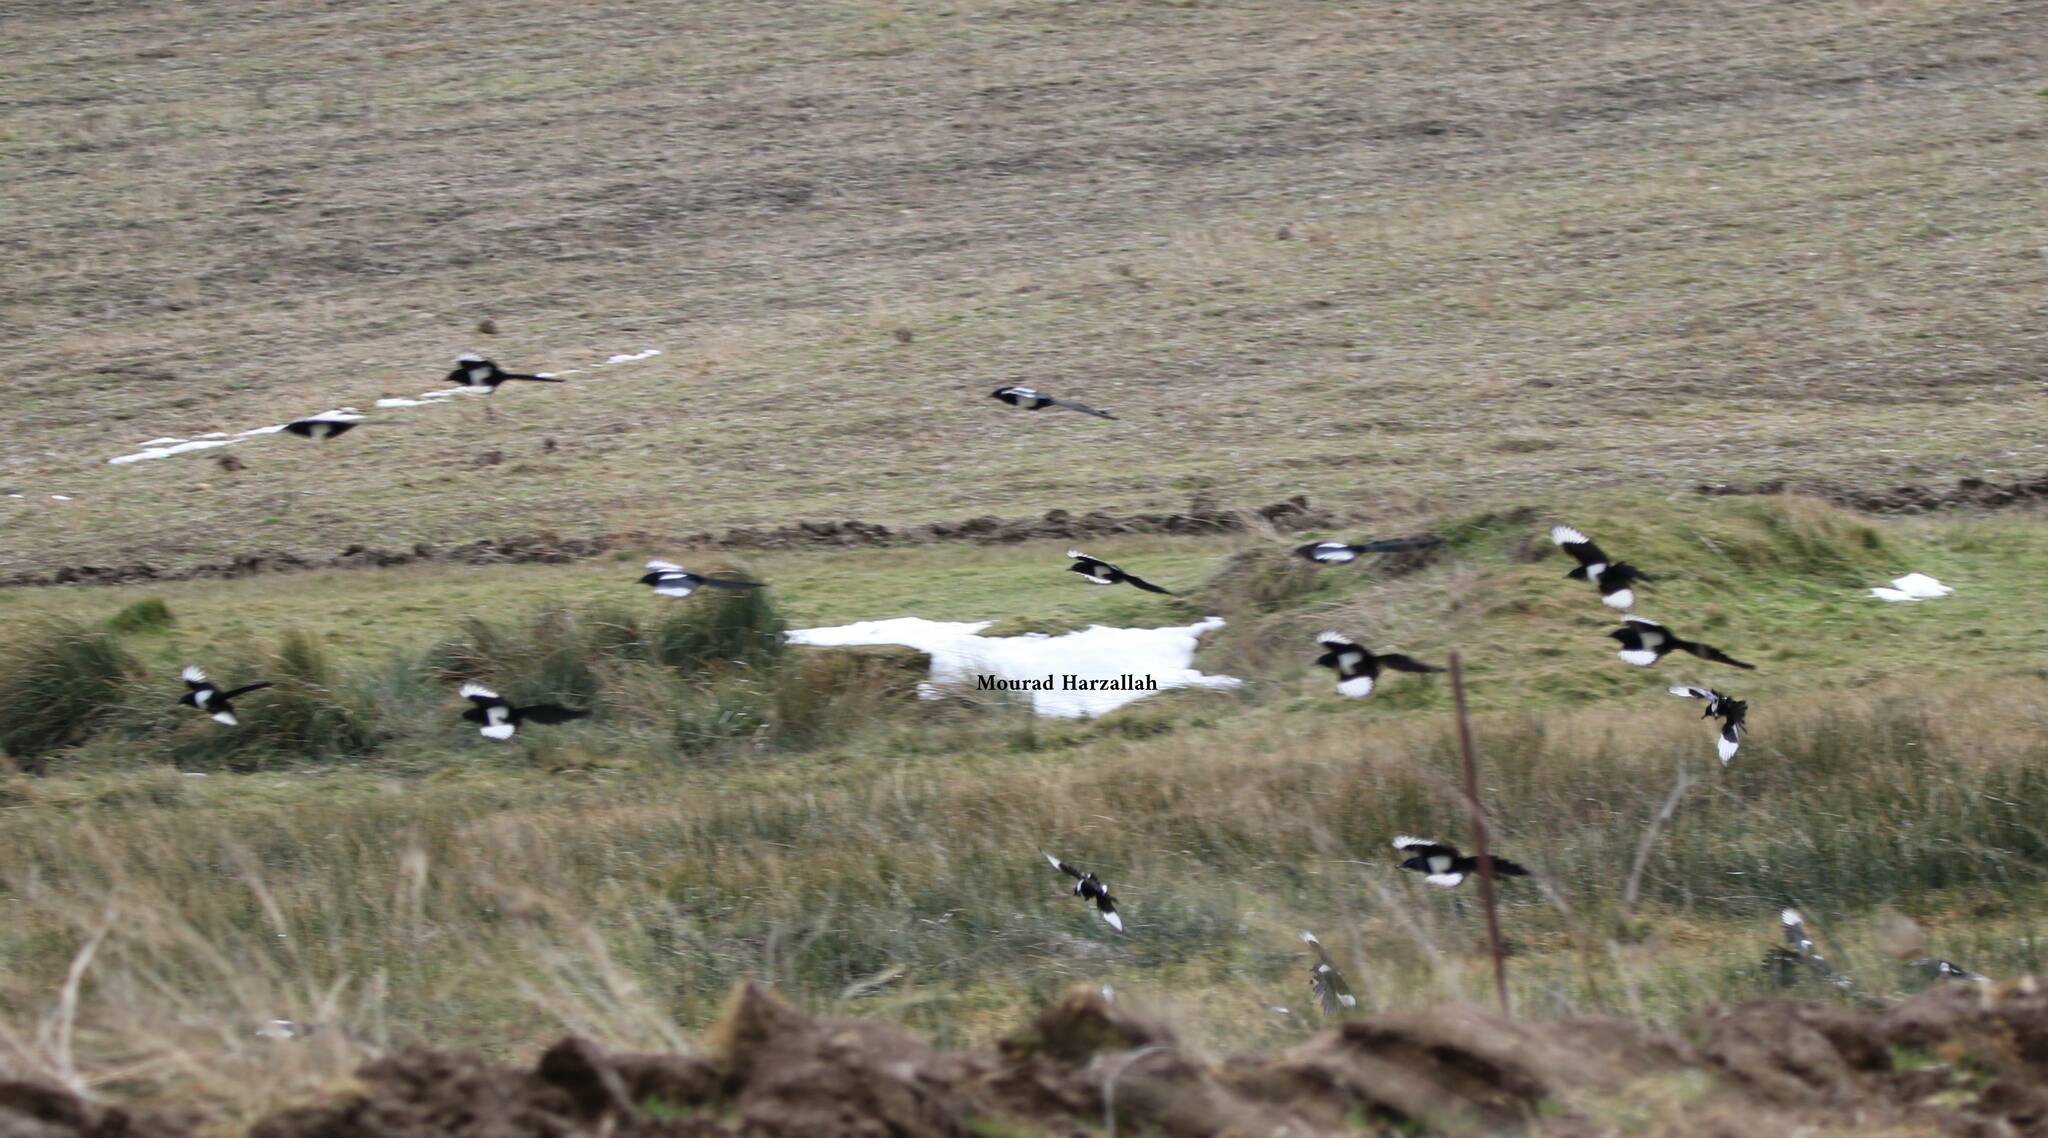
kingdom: Animalia
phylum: Chordata
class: Aves
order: Passeriformes
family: Corvidae
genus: Pica
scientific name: Pica mauritanica
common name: Maghreb magpie
